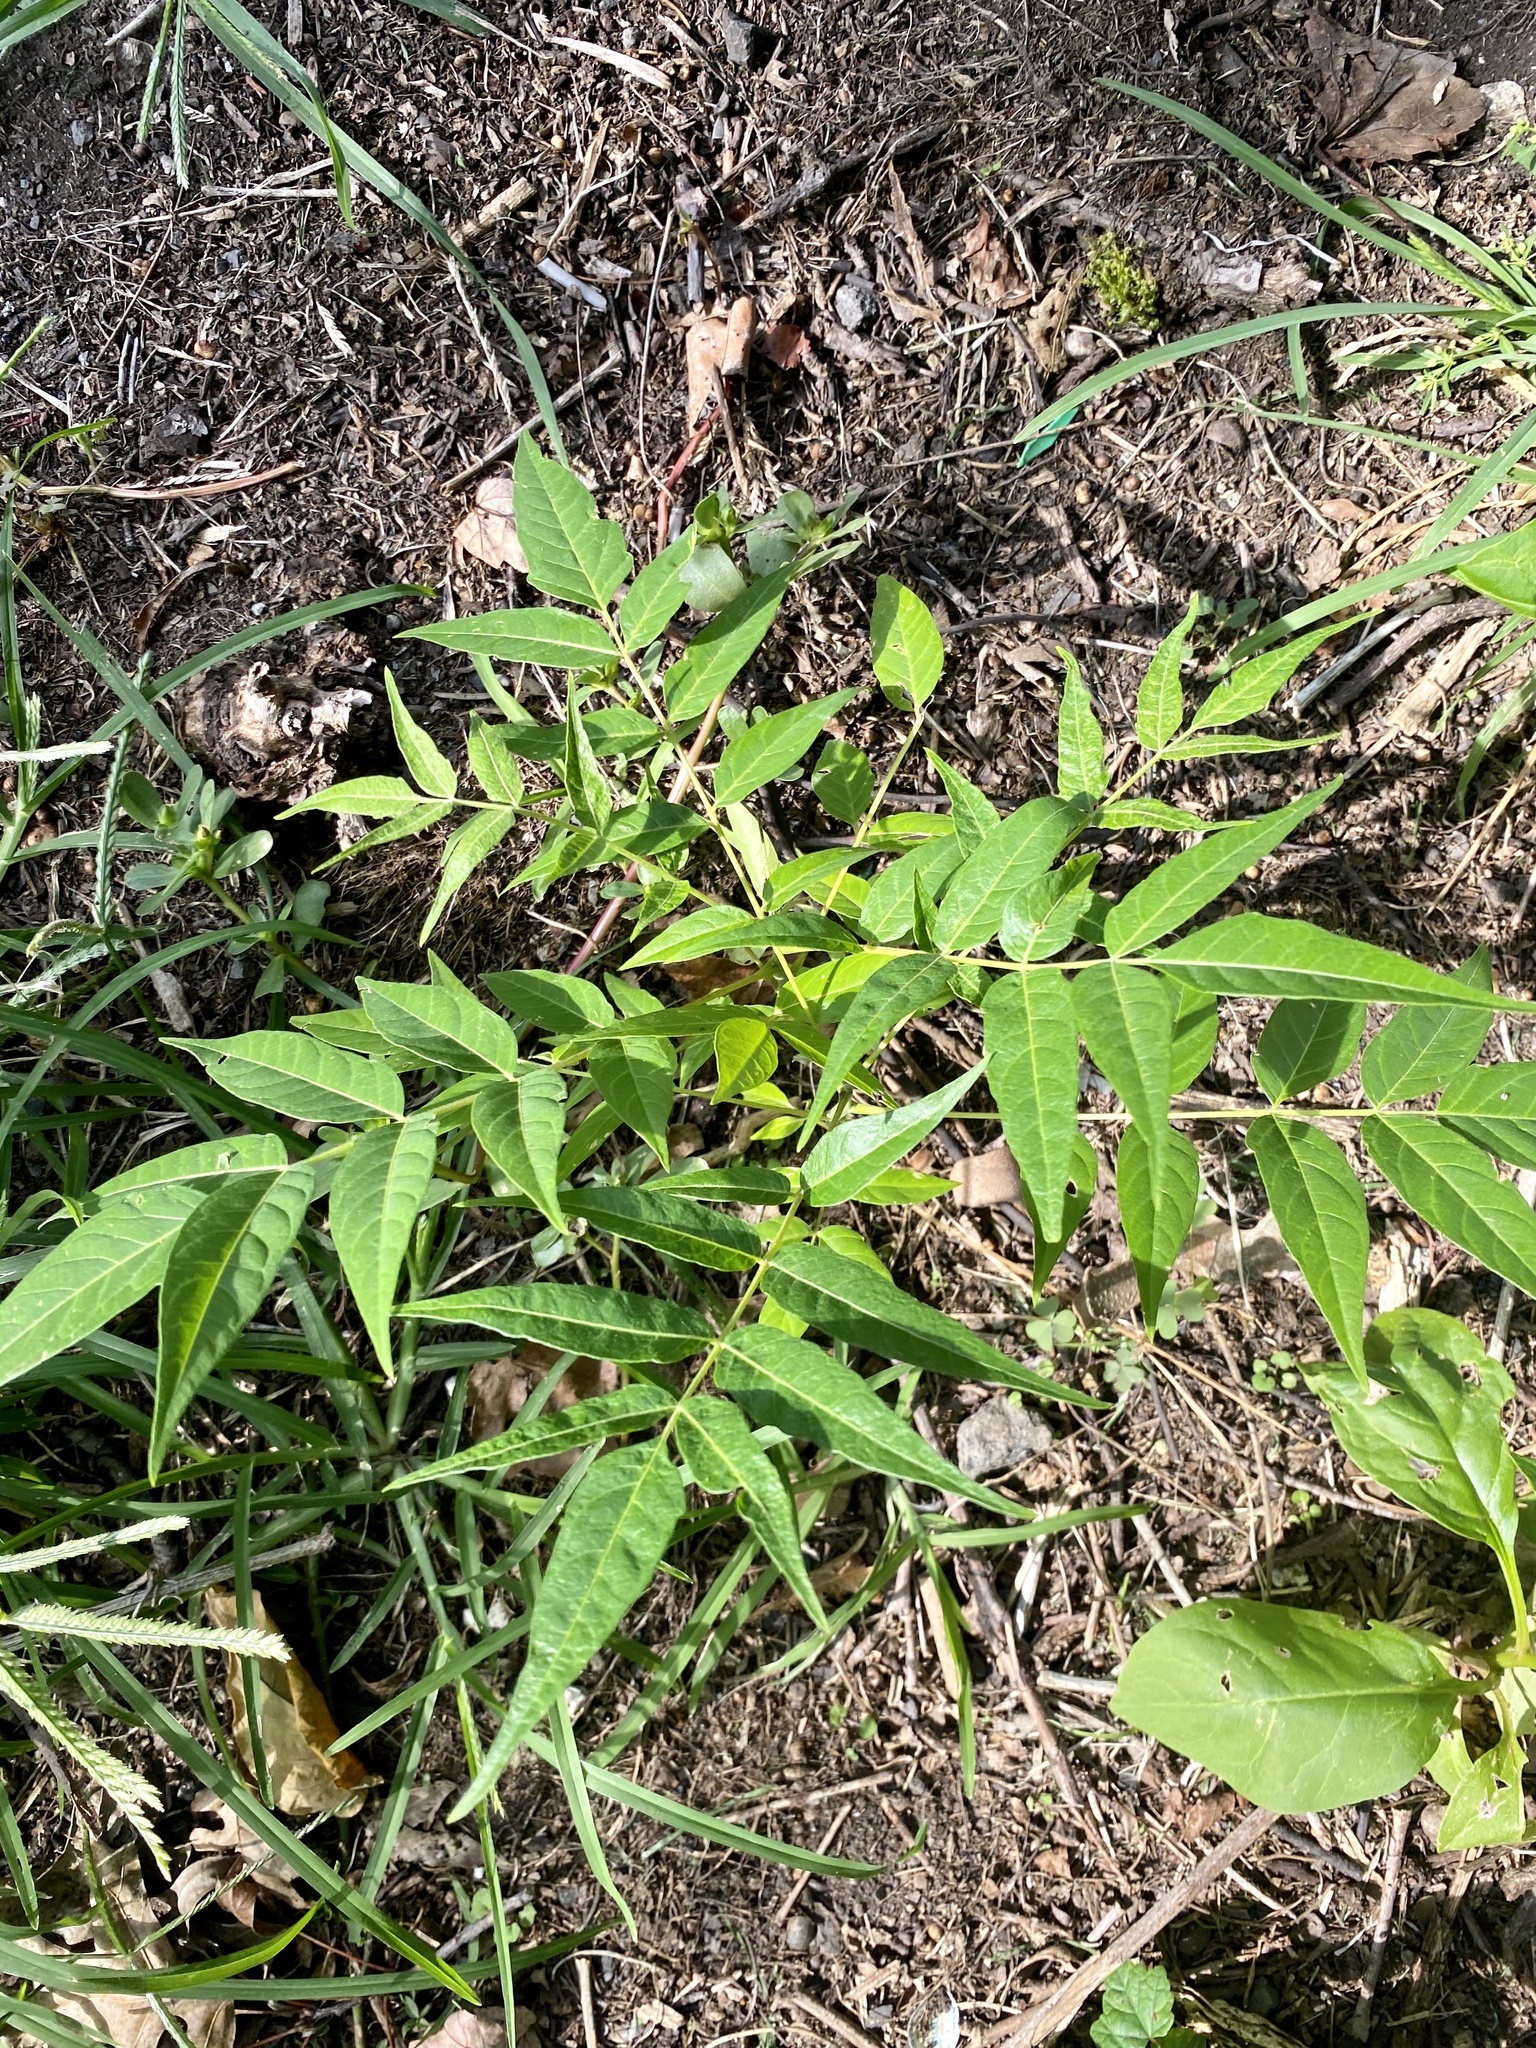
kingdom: Plantae
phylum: Tracheophyta
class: Magnoliopsida
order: Sapindales
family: Simaroubaceae
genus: Ailanthus
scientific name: Ailanthus altissima
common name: Tree-of-heaven
